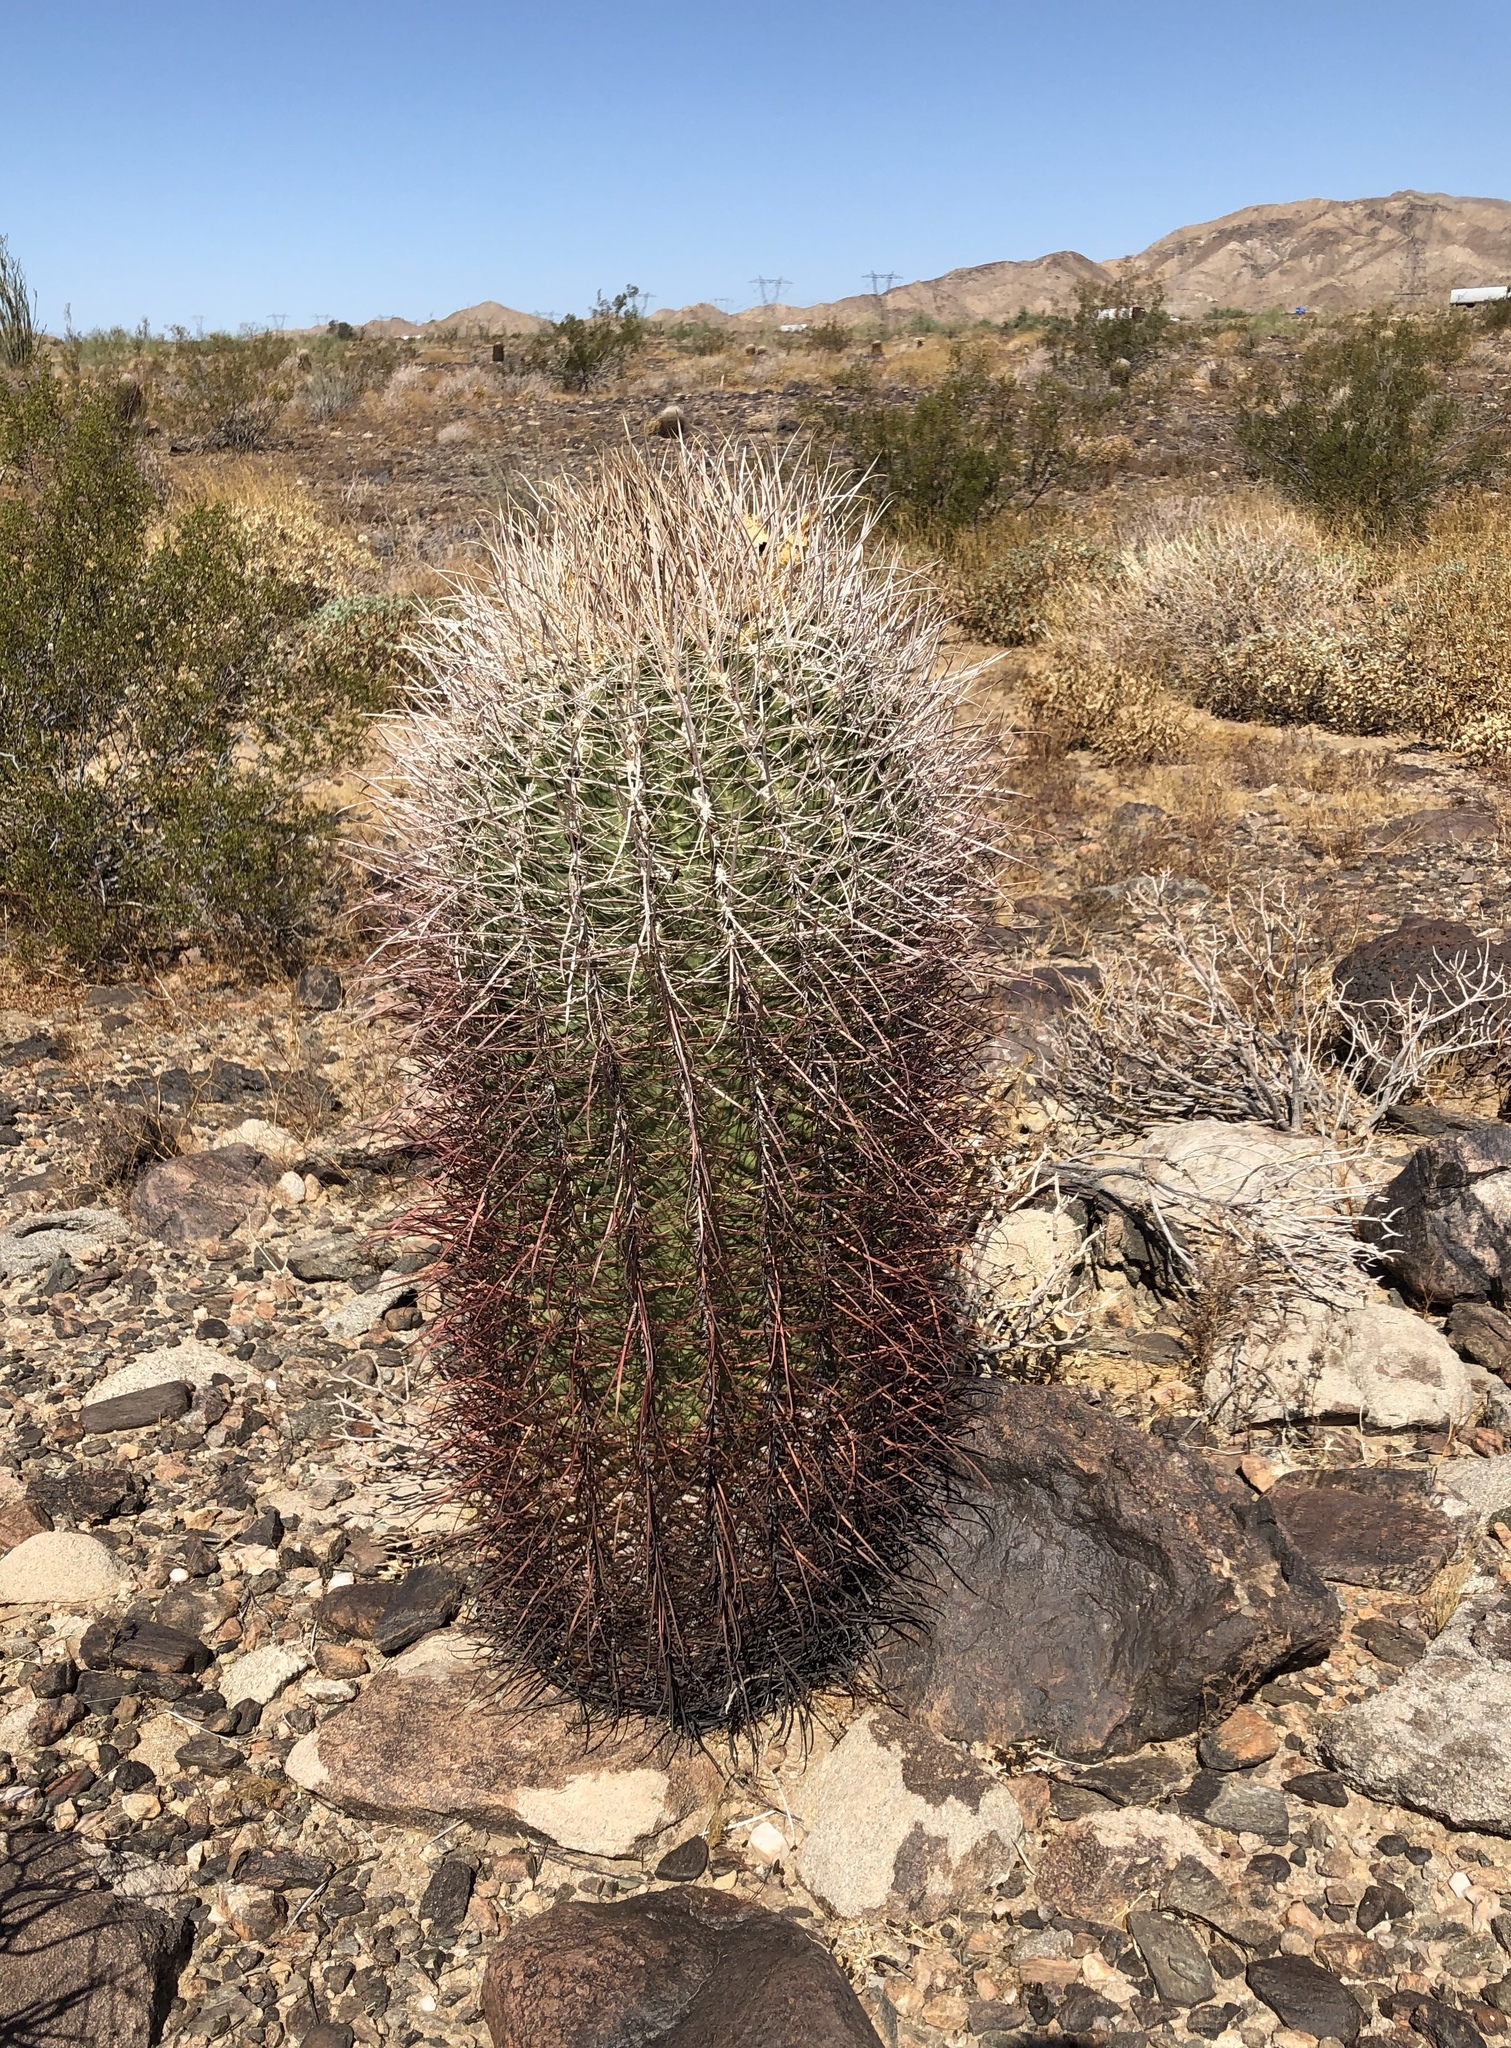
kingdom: Plantae
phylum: Tracheophyta
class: Magnoliopsida
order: Caryophyllales
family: Cactaceae
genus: Ferocactus
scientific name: Ferocactus cylindraceus
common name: California barrel cactus
